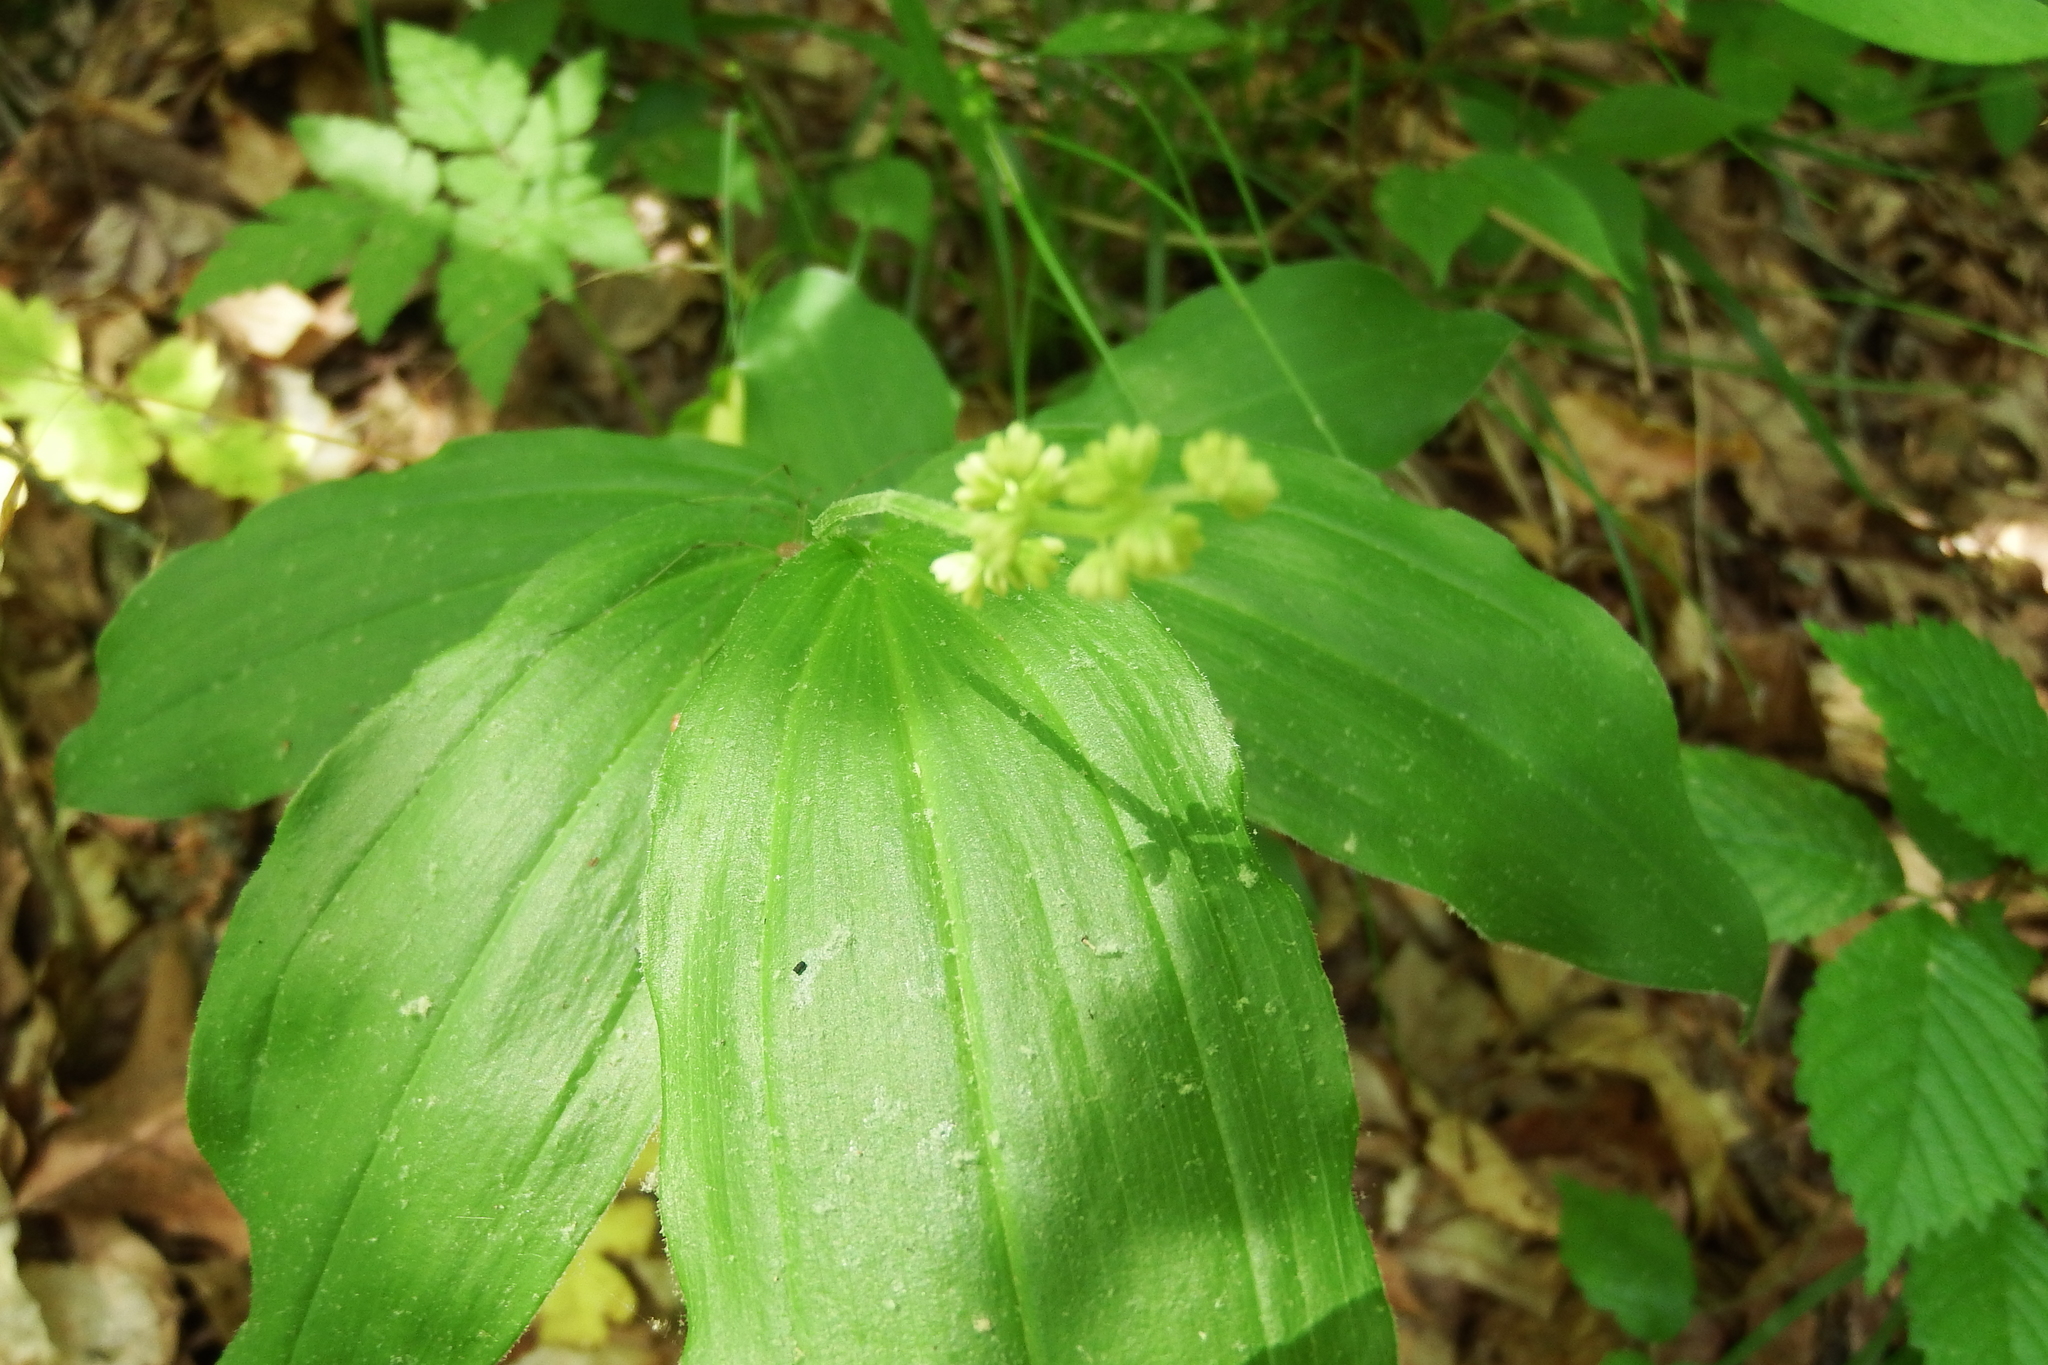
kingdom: Plantae
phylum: Tracheophyta
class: Liliopsida
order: Asparagales
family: Asparagaceae
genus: Maianthemum
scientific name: Maianthemum racemosum
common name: False spikenard
